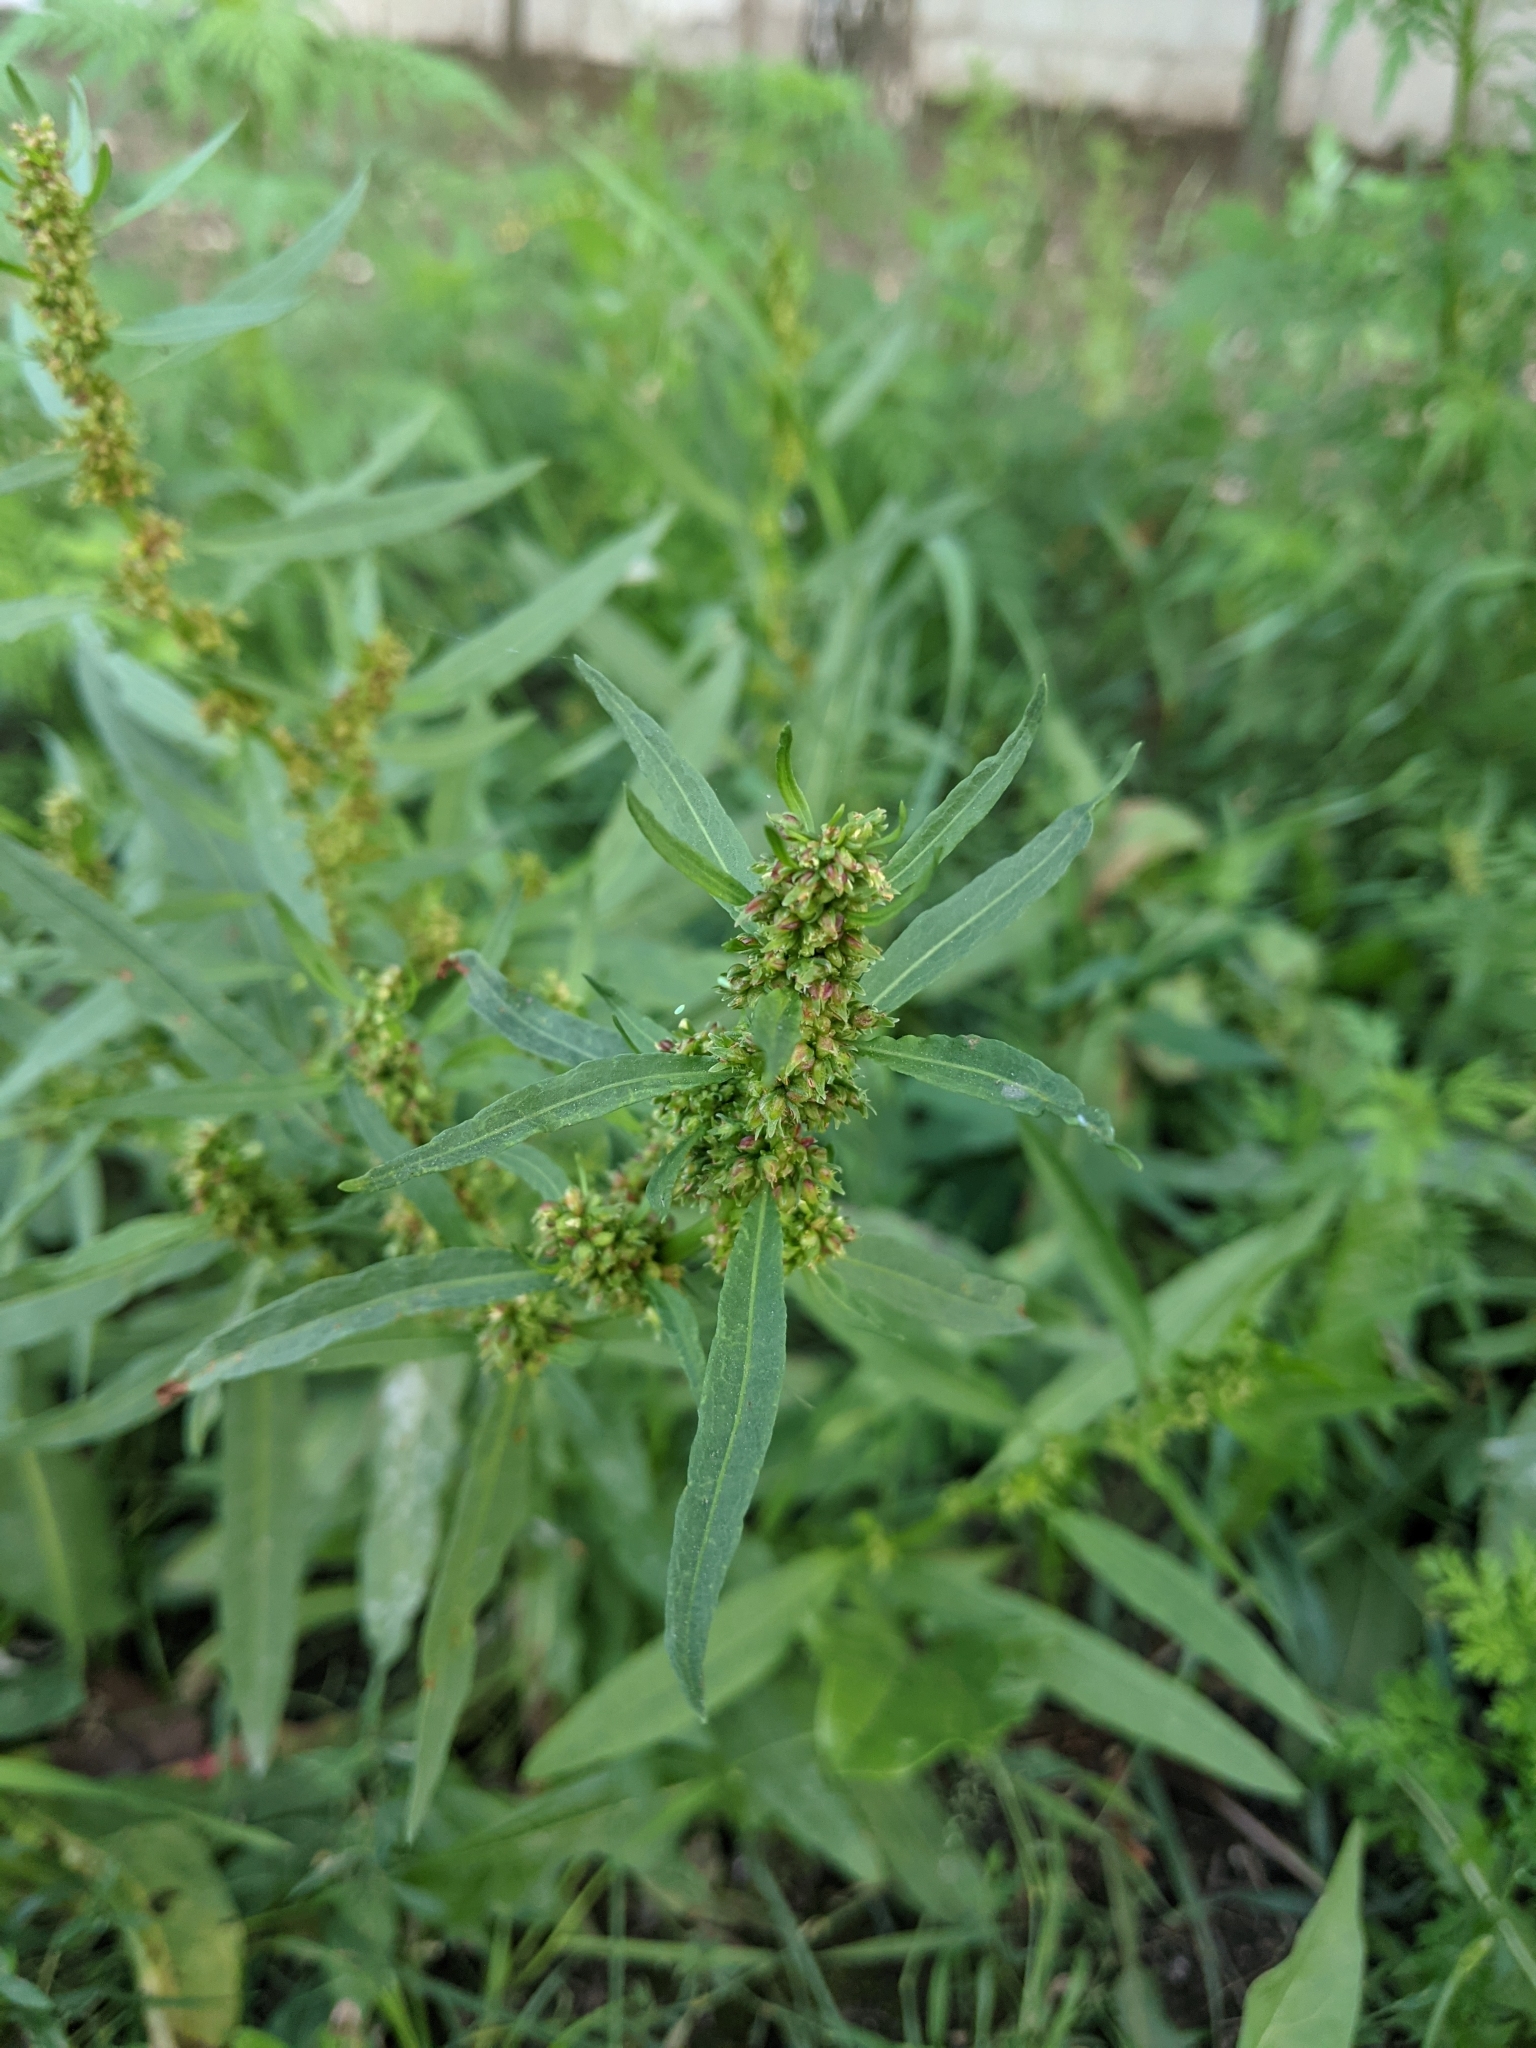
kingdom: Plantae
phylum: Tracheophyta
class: Magnoliopsida
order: Caryophyllales
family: Polygonaceae
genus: Rumex
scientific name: Rumex palustris
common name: Marsh dock
